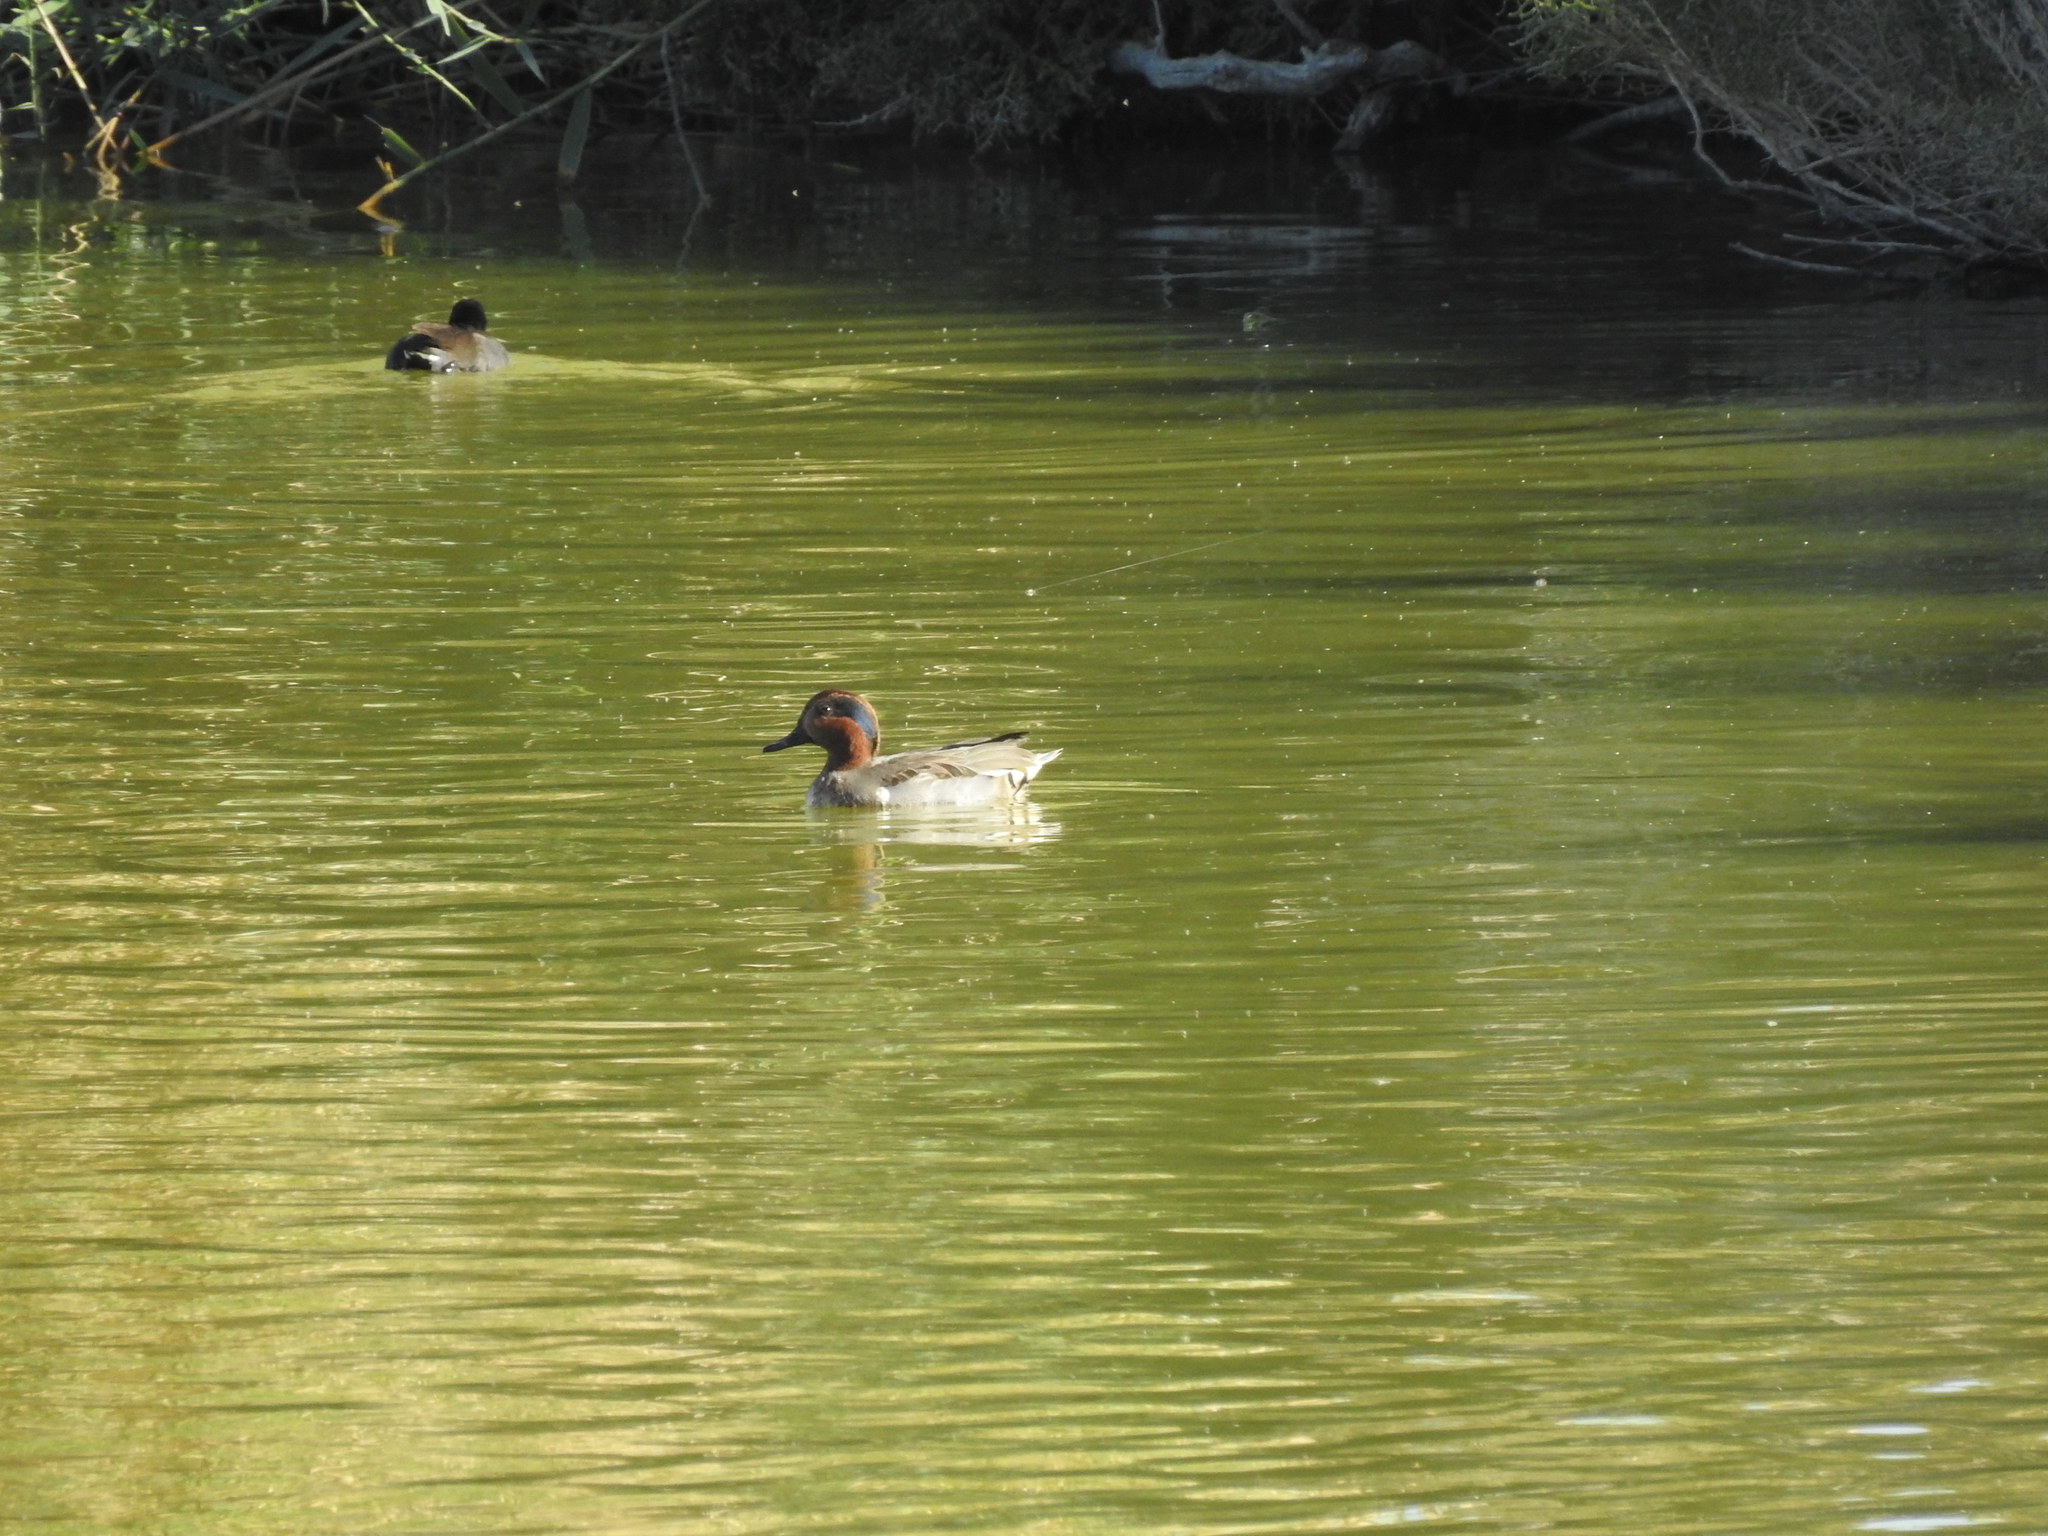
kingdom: Animalia
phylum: Chordata
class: Aves
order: Anseriformes
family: Anatidae
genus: Anas
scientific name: Anas crecca
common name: Eurasian teal
